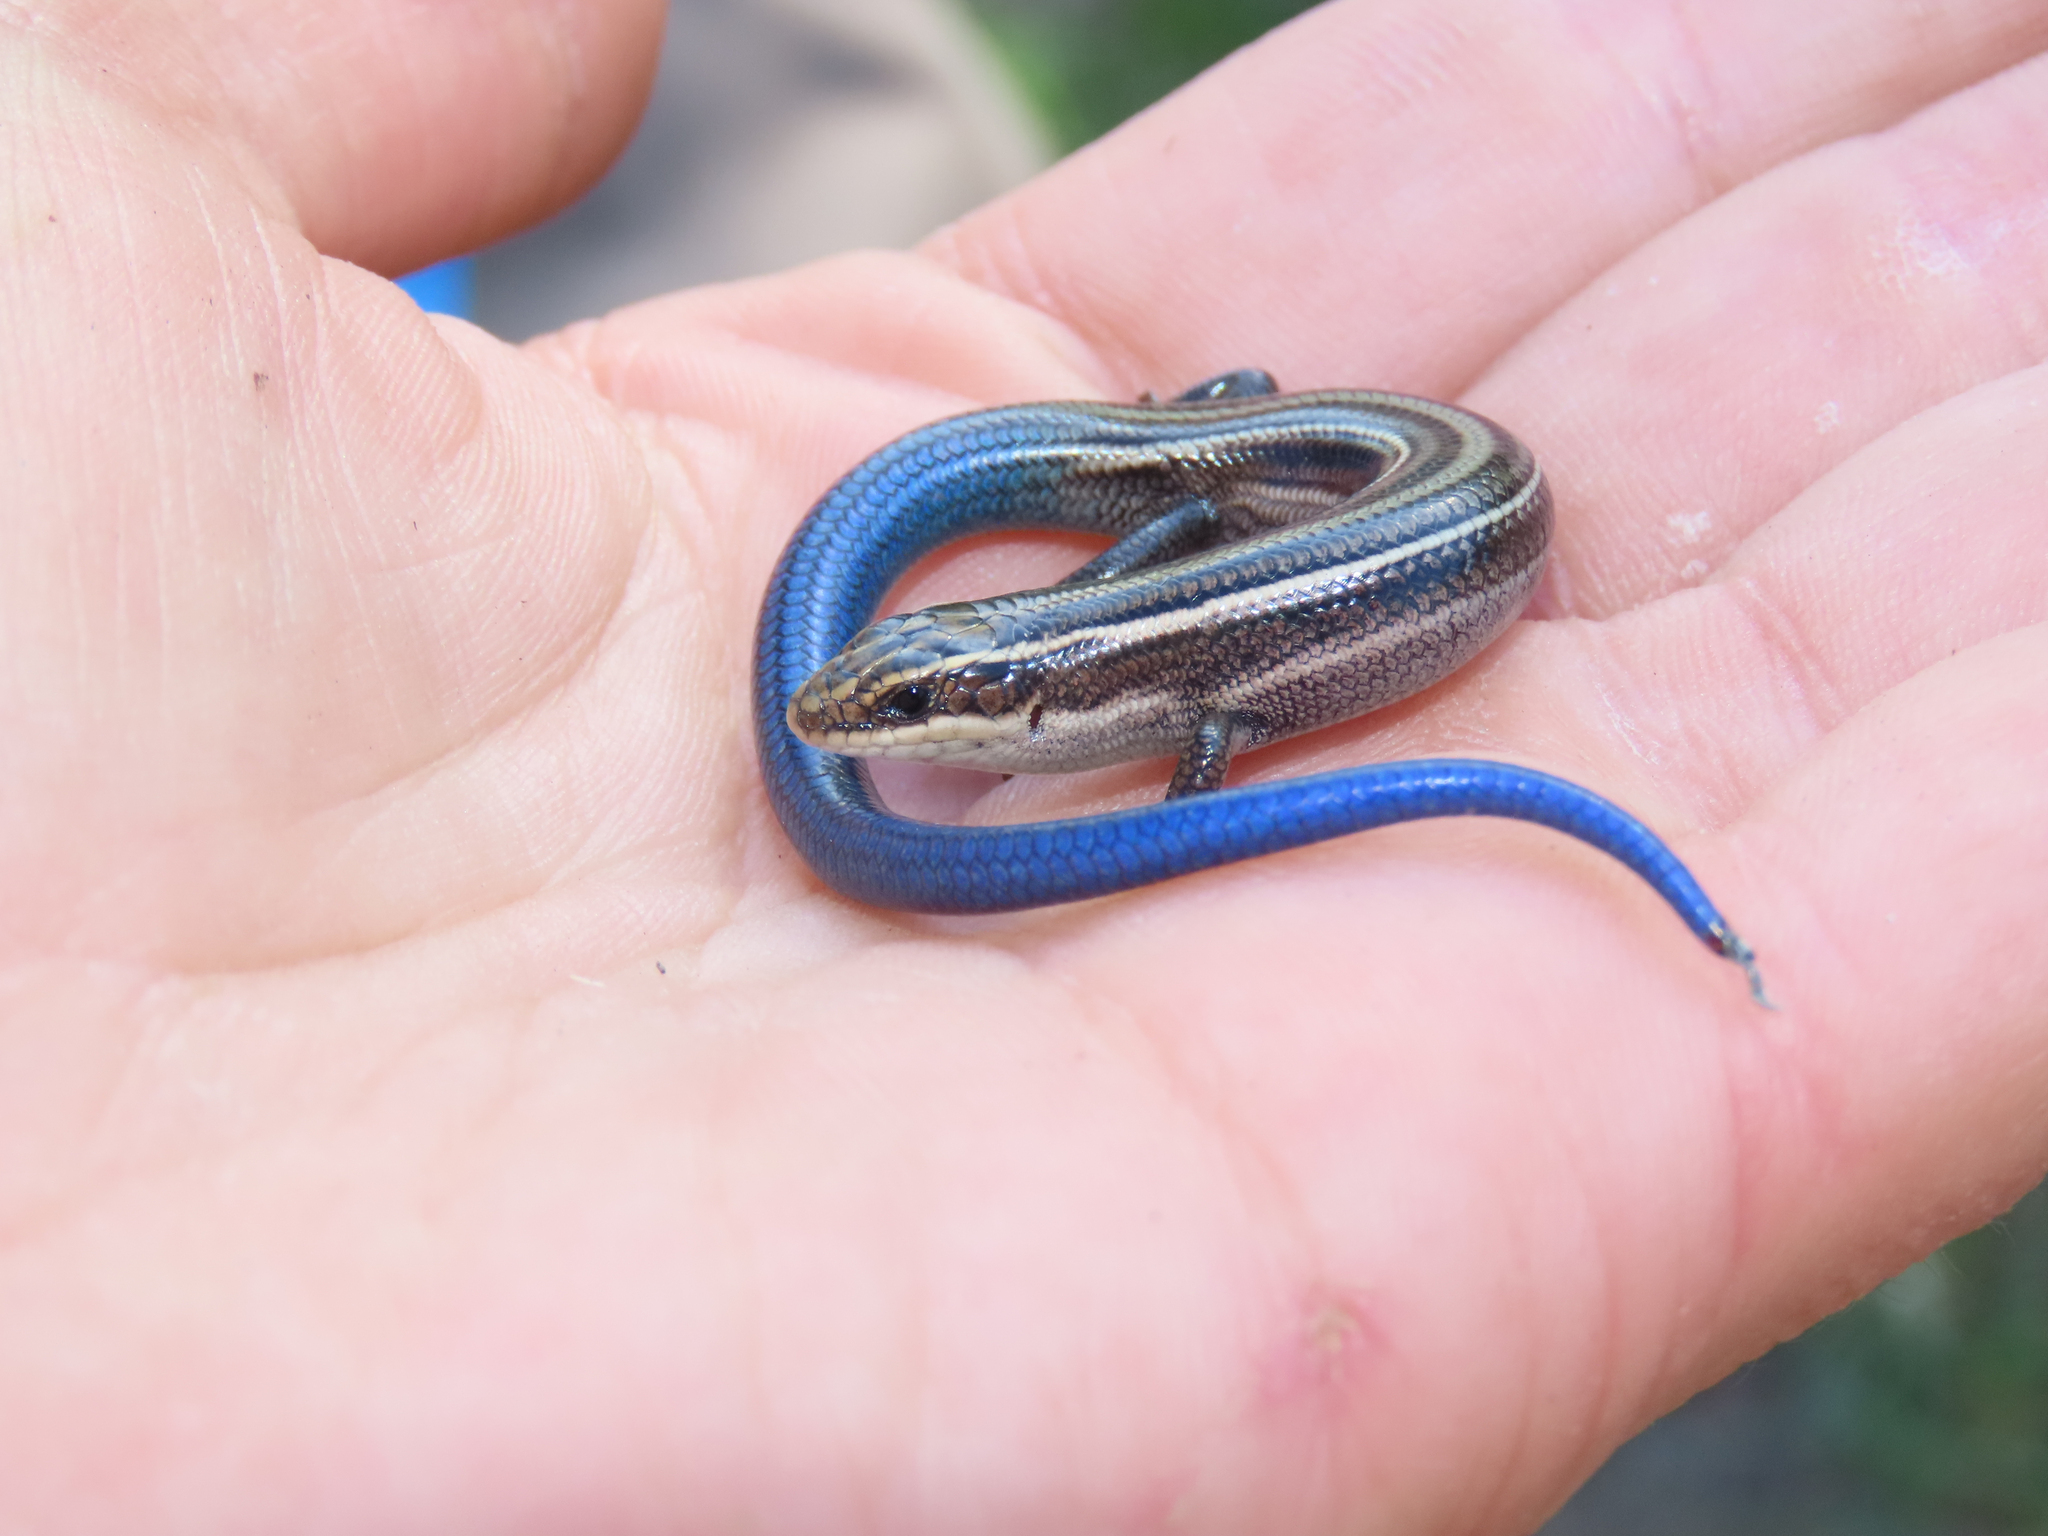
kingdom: Animalia
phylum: Chordata
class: Squamata
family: Scincidae
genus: Plestiodon
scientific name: Plestiodon multivirgatus
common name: Many-lined skink
